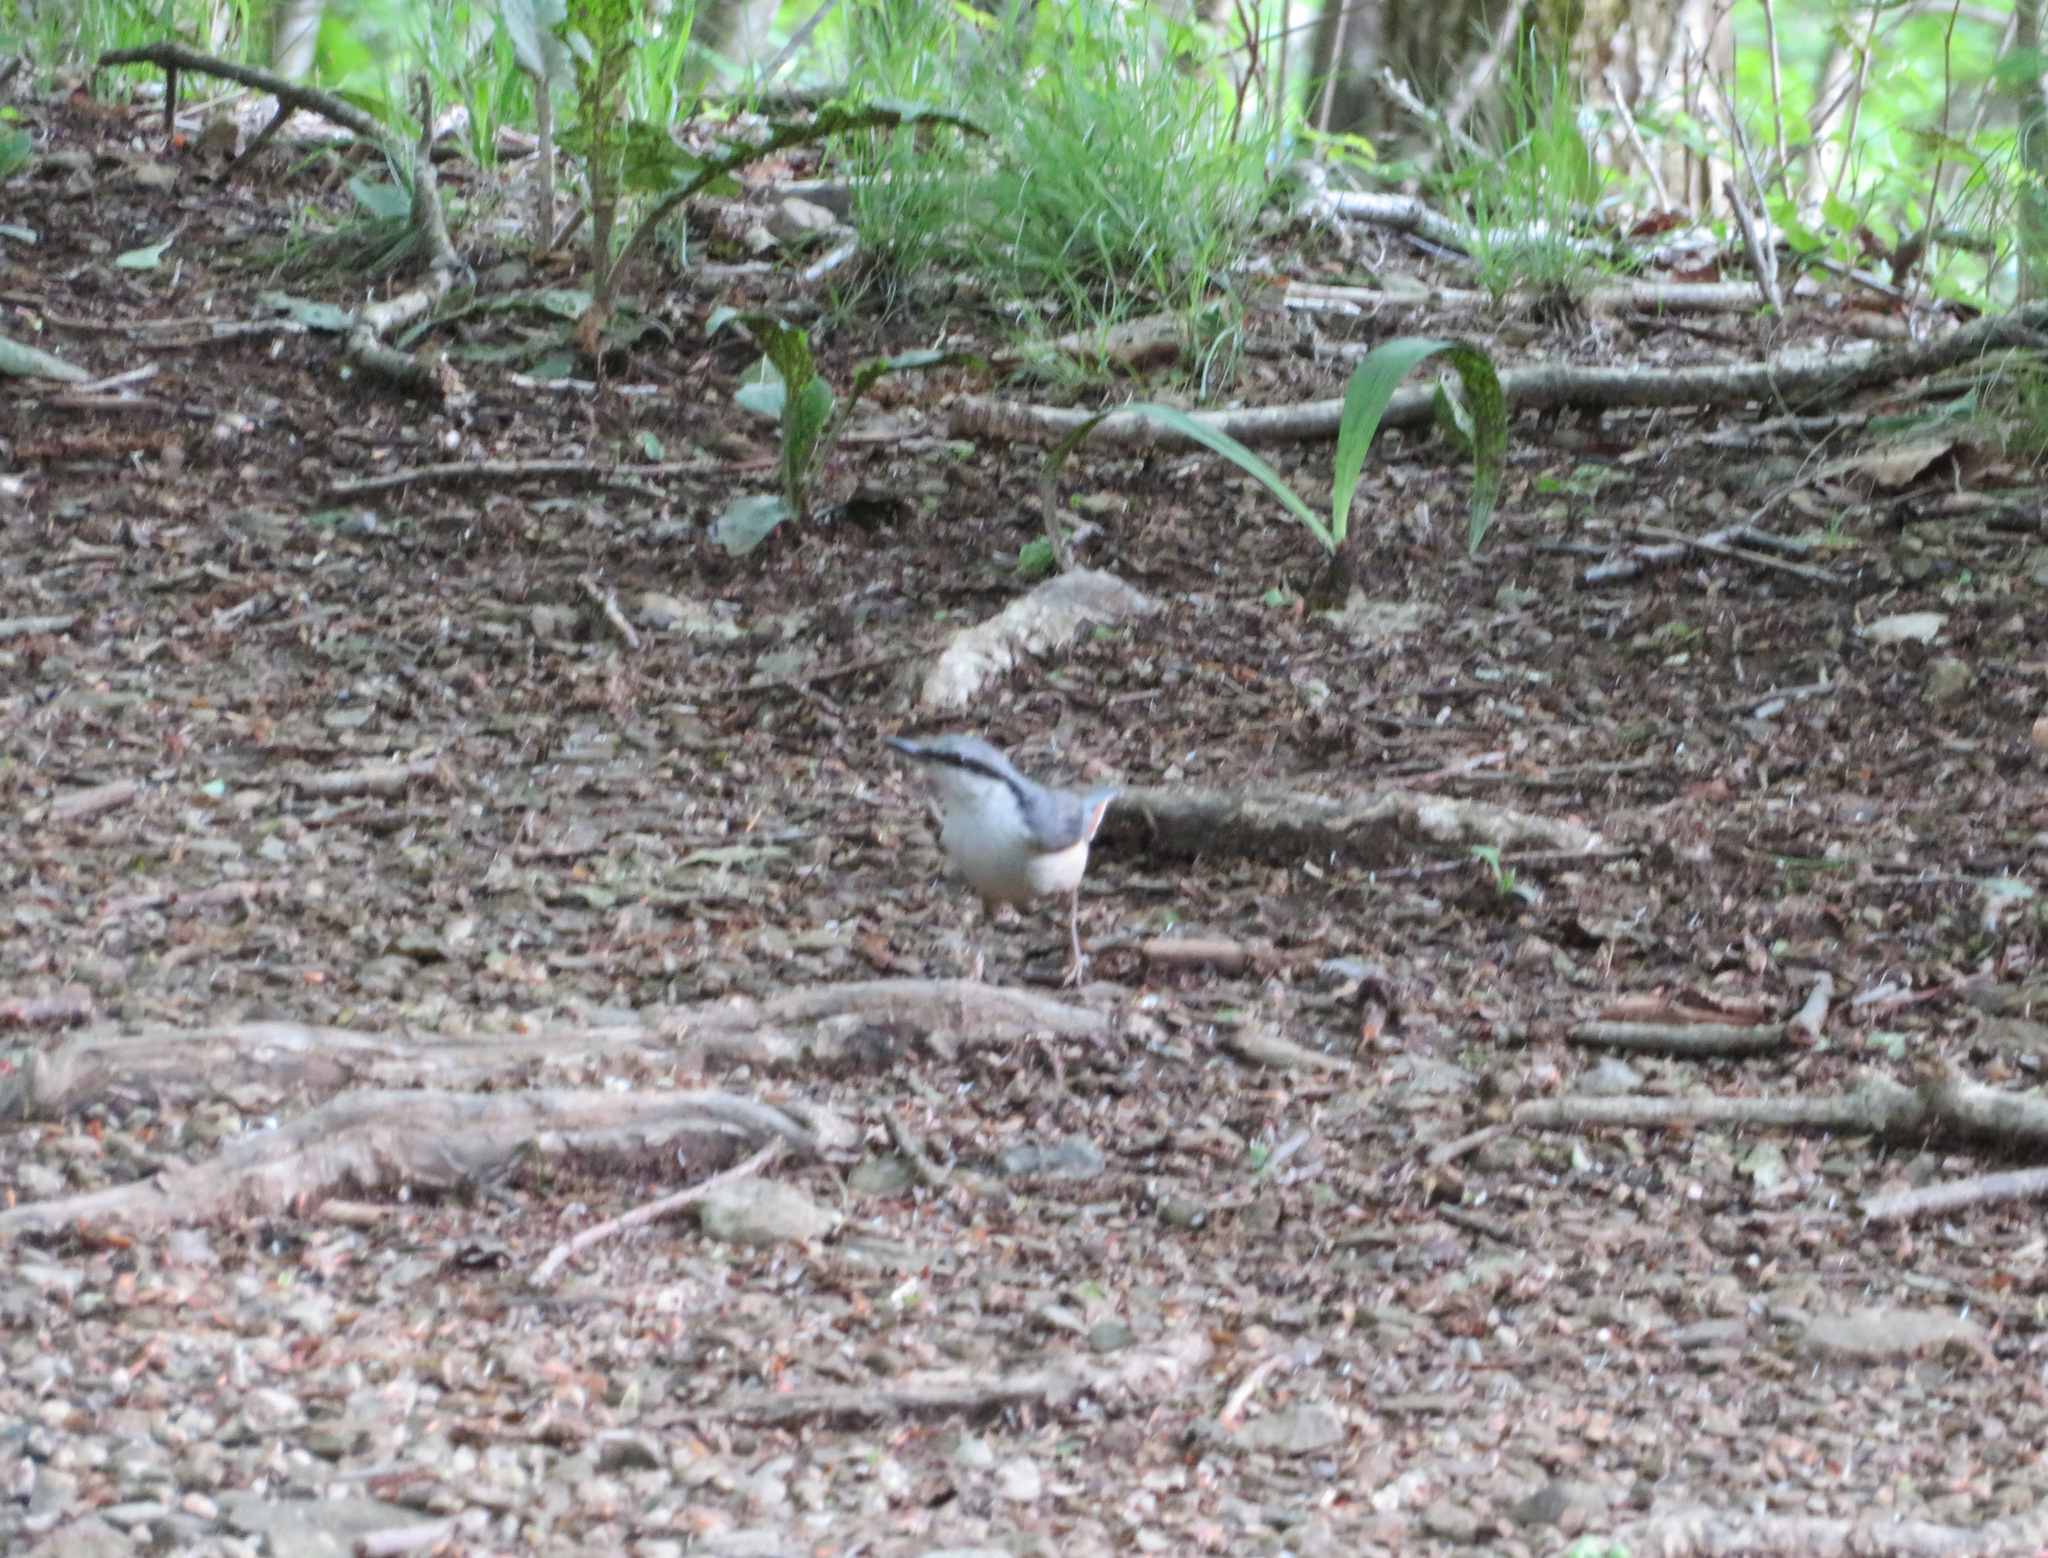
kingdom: Animalia
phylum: Chordata
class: Aves
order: Passeriformes
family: Sittidae
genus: Sitta
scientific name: Sitta europaea
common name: Eurasian nuthatch
